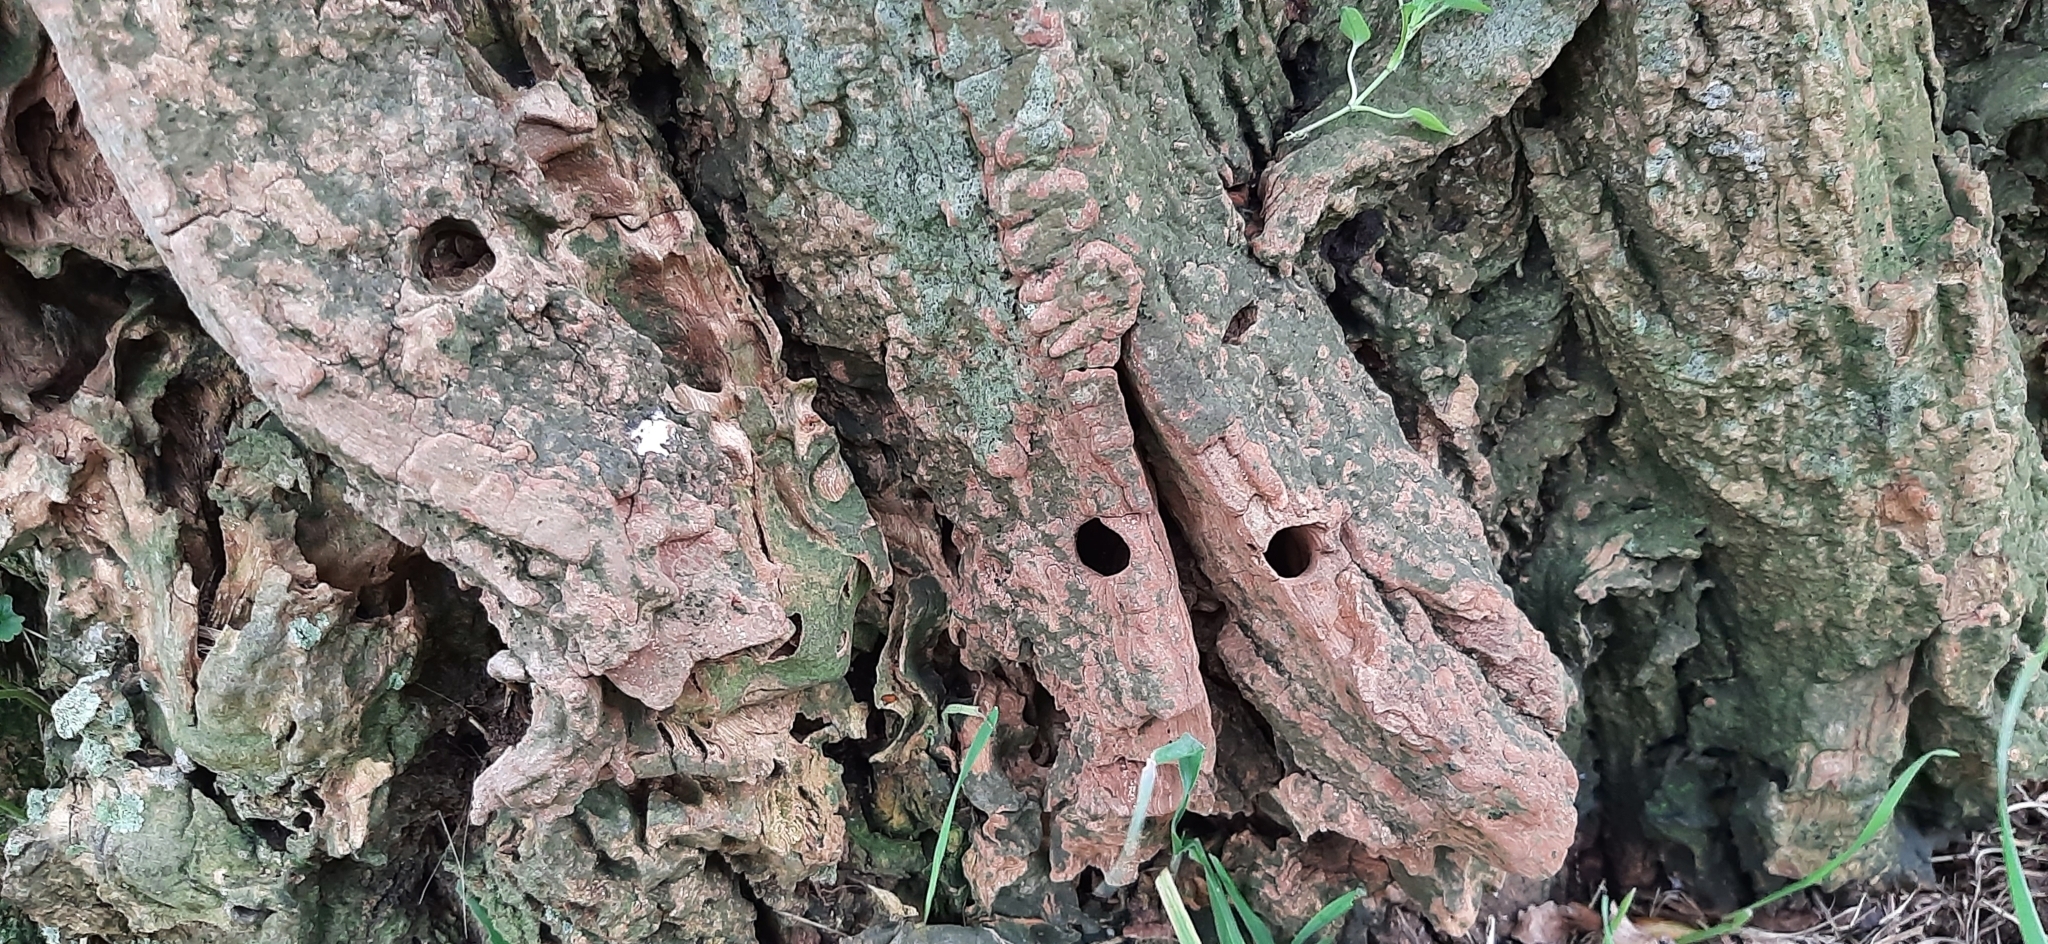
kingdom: Animalia
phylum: Arthropoda
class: Insecta
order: Lepidoptera
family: Sesiidae
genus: Sesia
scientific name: Sesia apiformis
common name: Hornet moth
